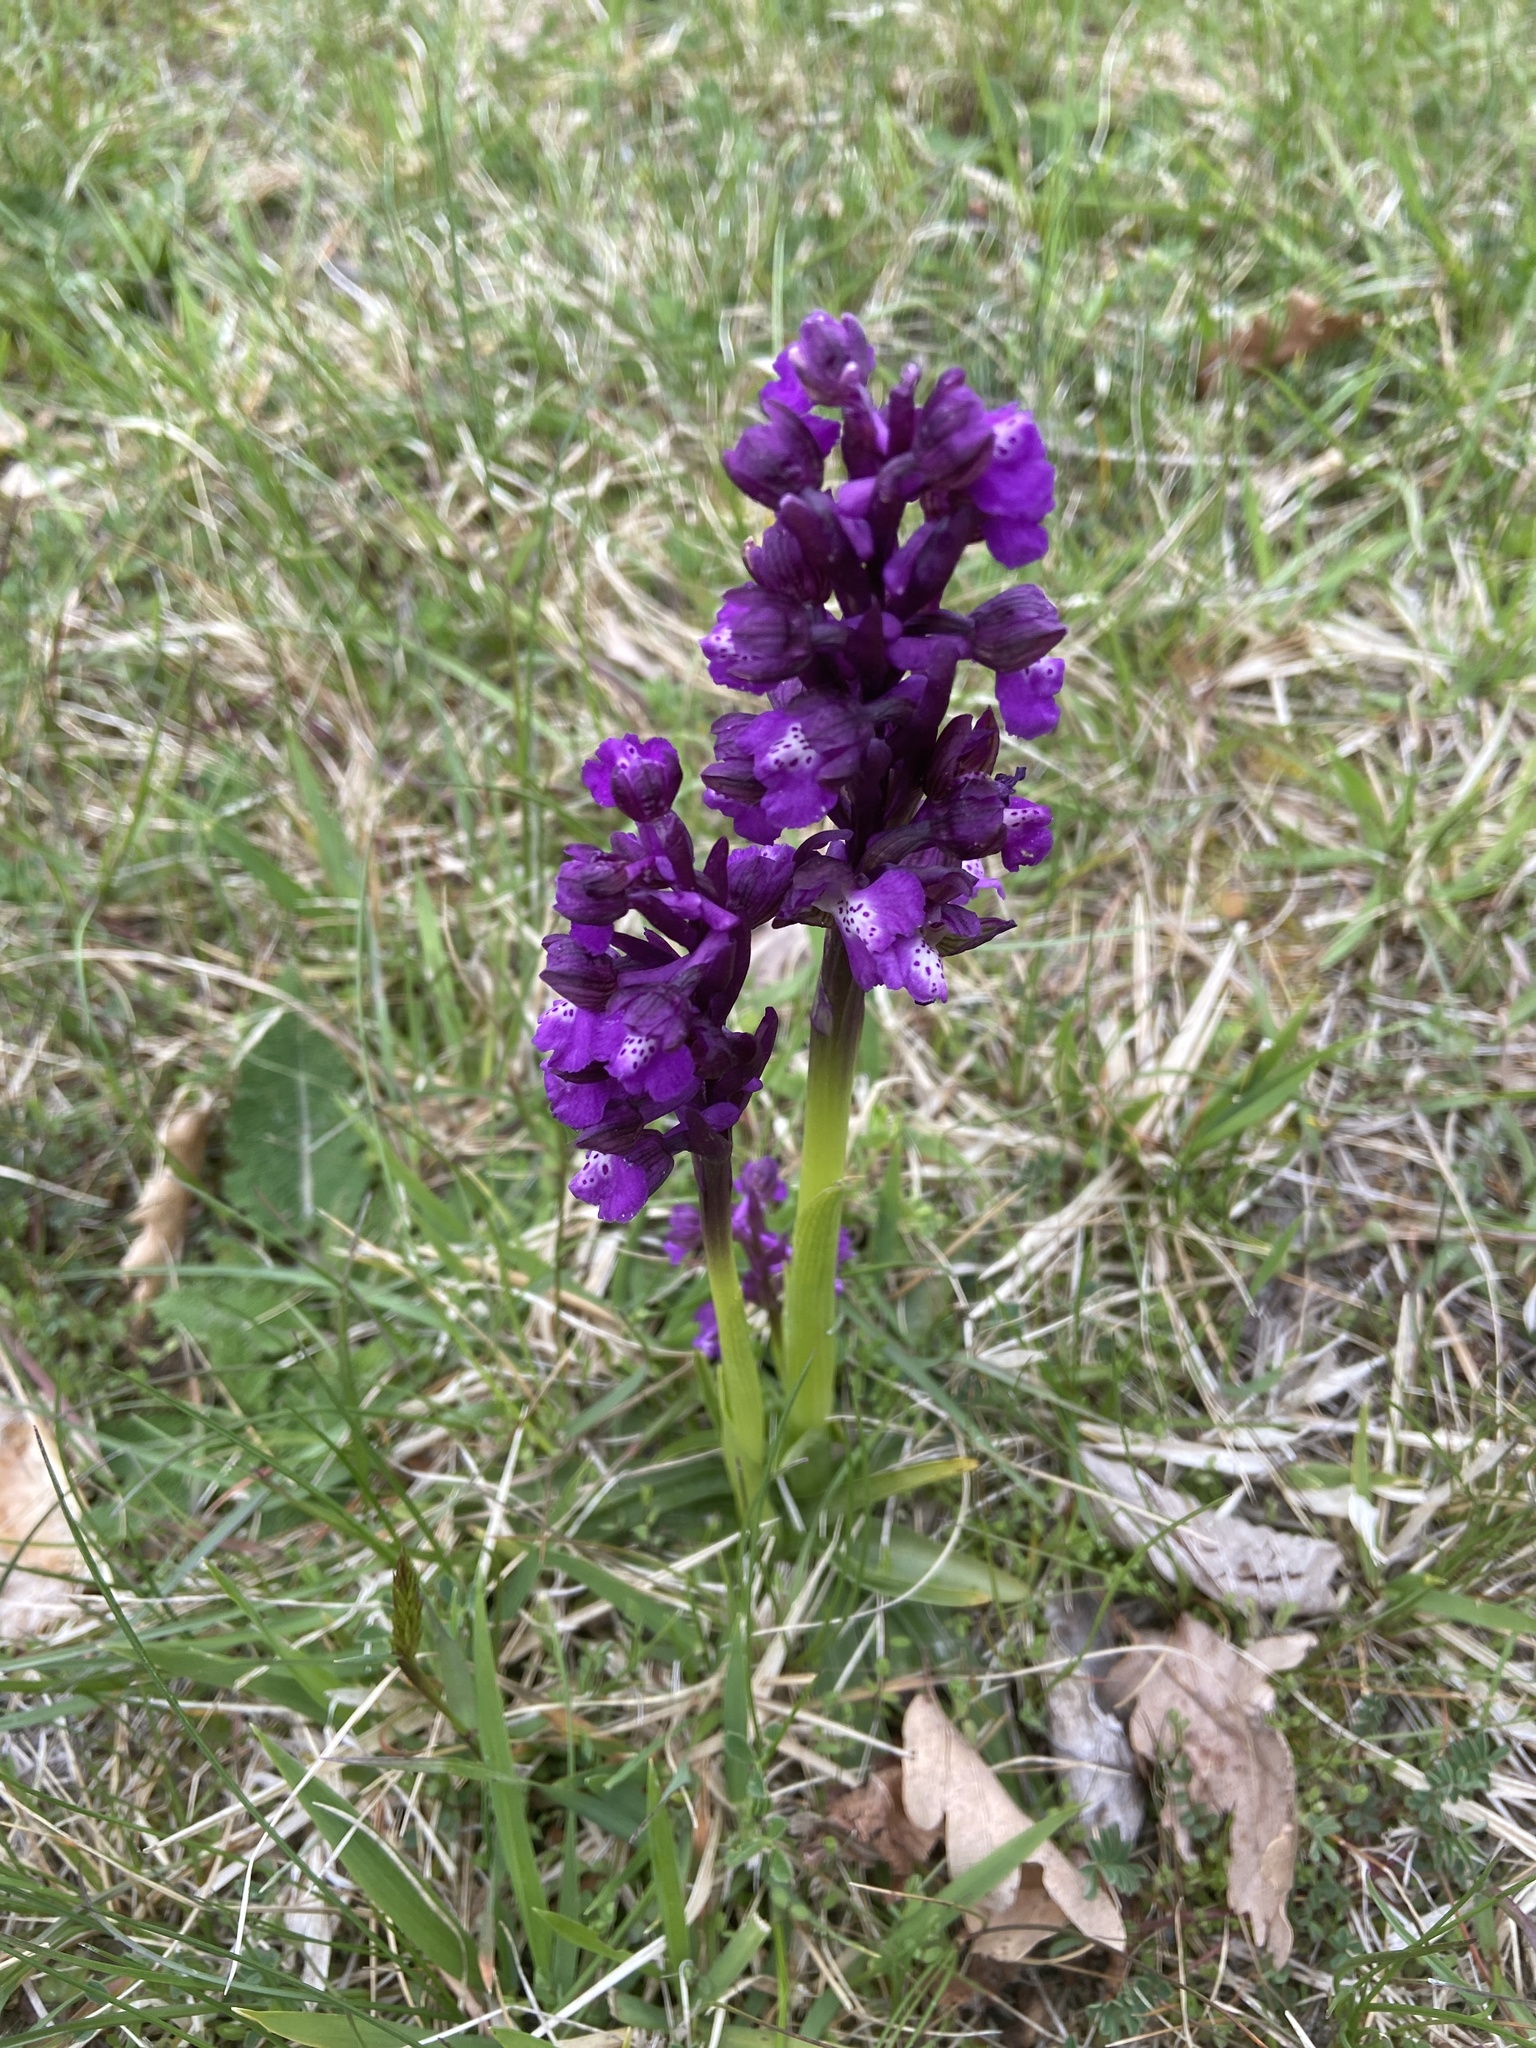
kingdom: Plantae
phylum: Tracheophyta
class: Liliopsida
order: Asparagales
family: Orchidaceae
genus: Anacamptis
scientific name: Anacamptis morio
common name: Green-winged orchid
